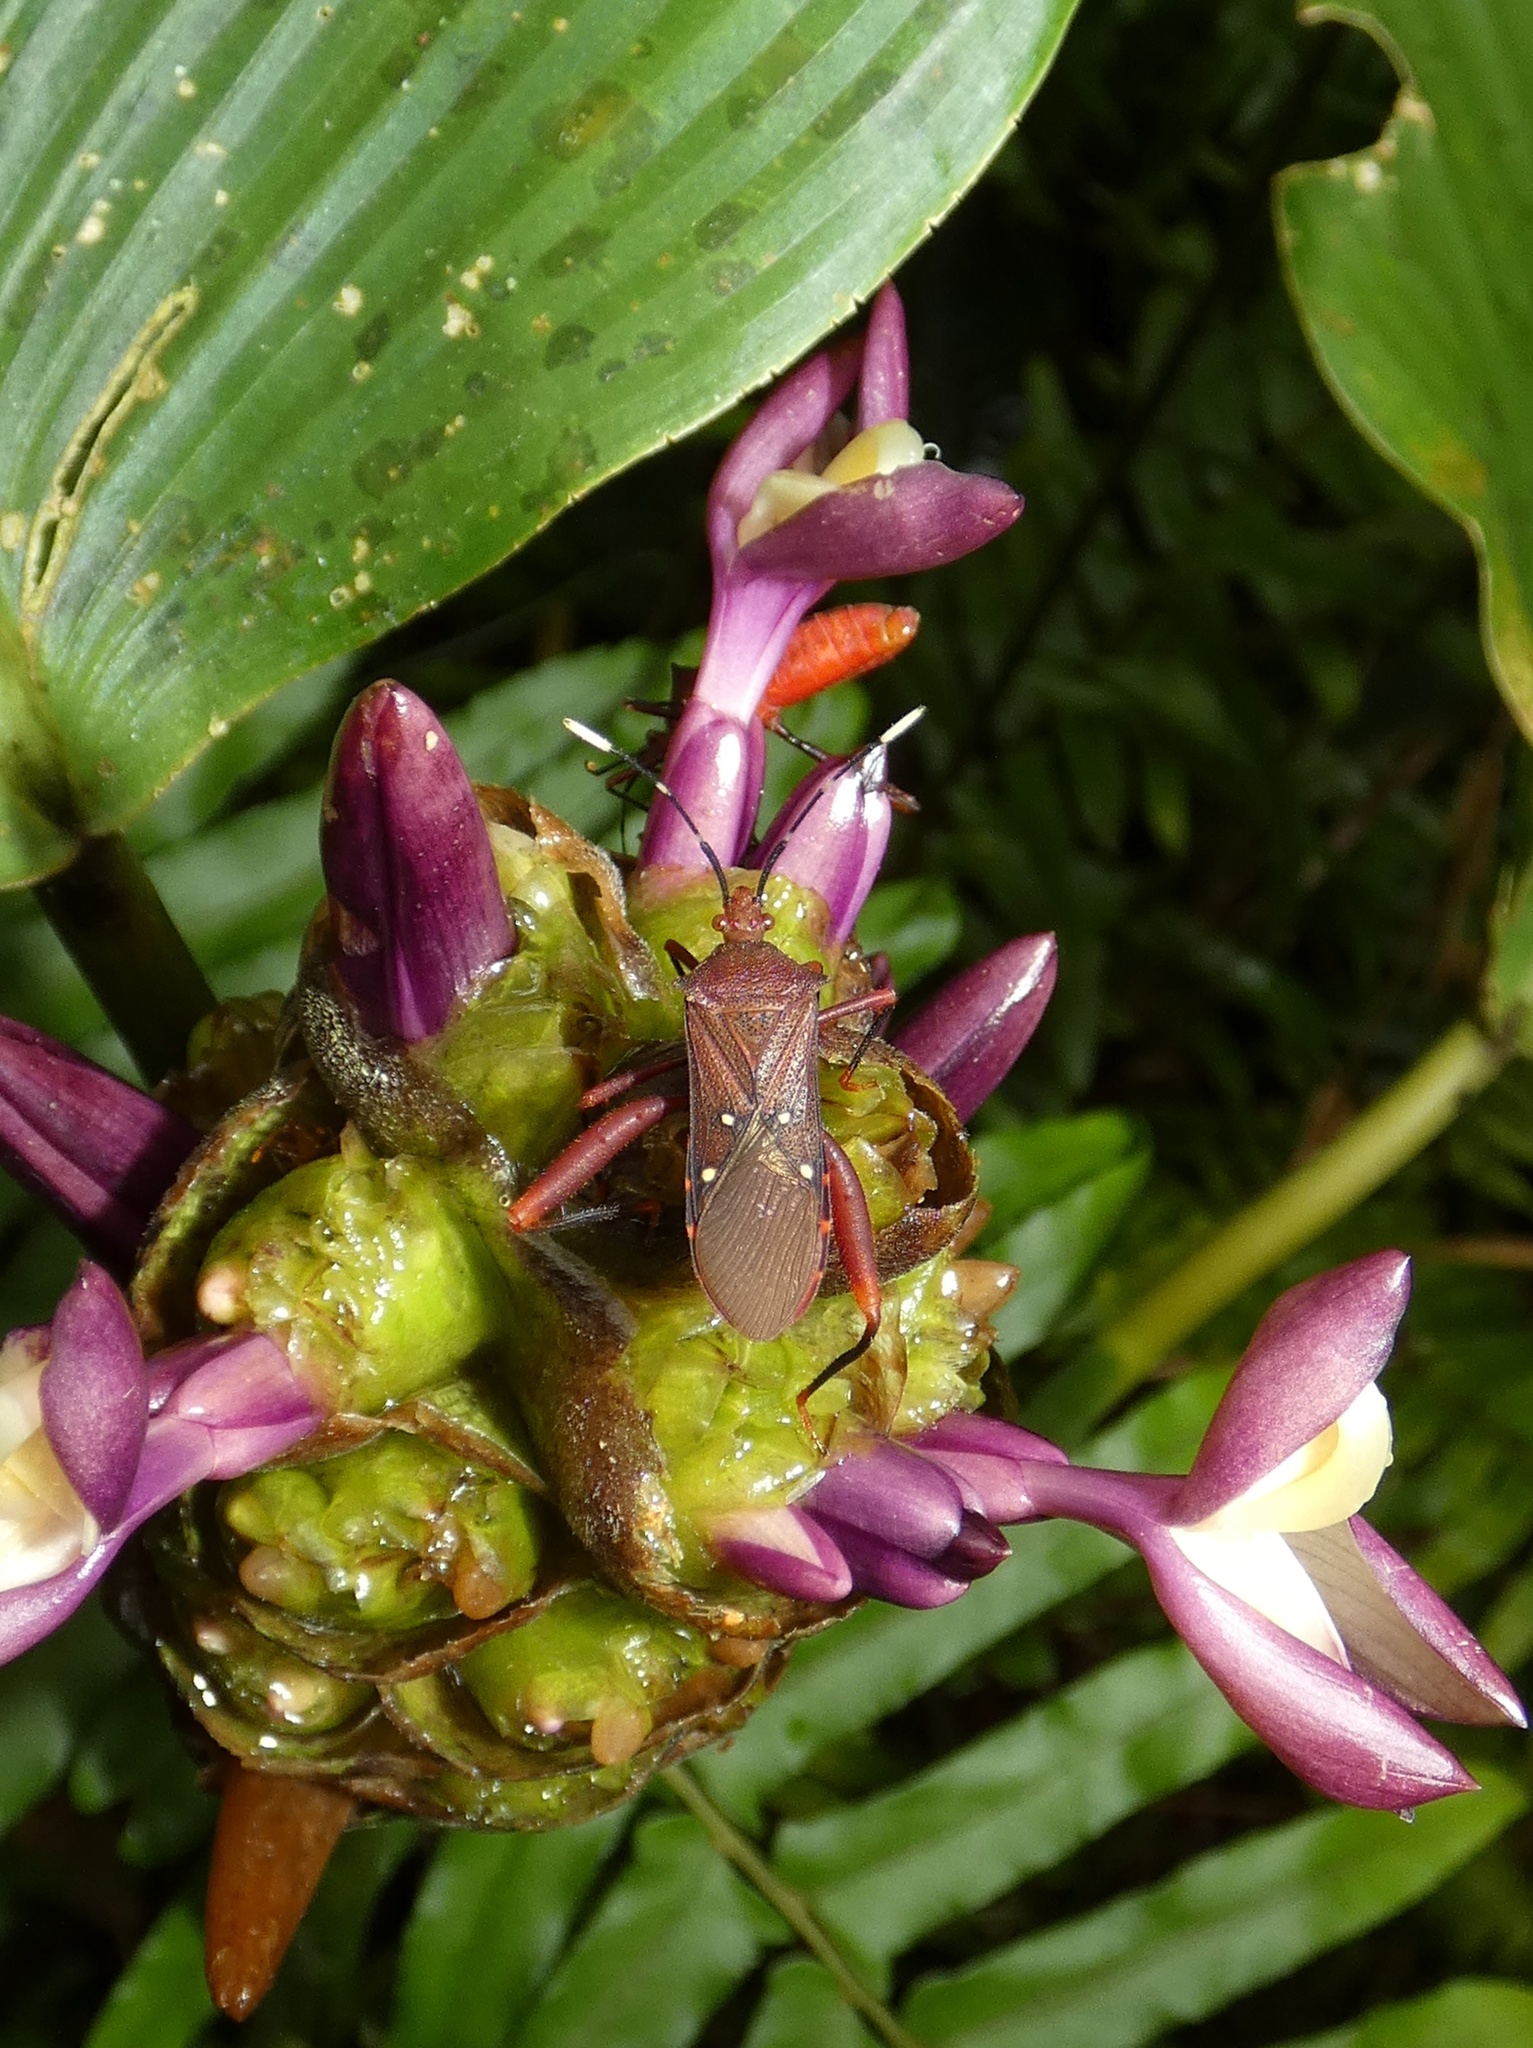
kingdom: Animalia
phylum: Arthropoda
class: Insecta
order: Hemiptera
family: Coreidae
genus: Leptoscelis
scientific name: Leptoscelis quadrisignatus
